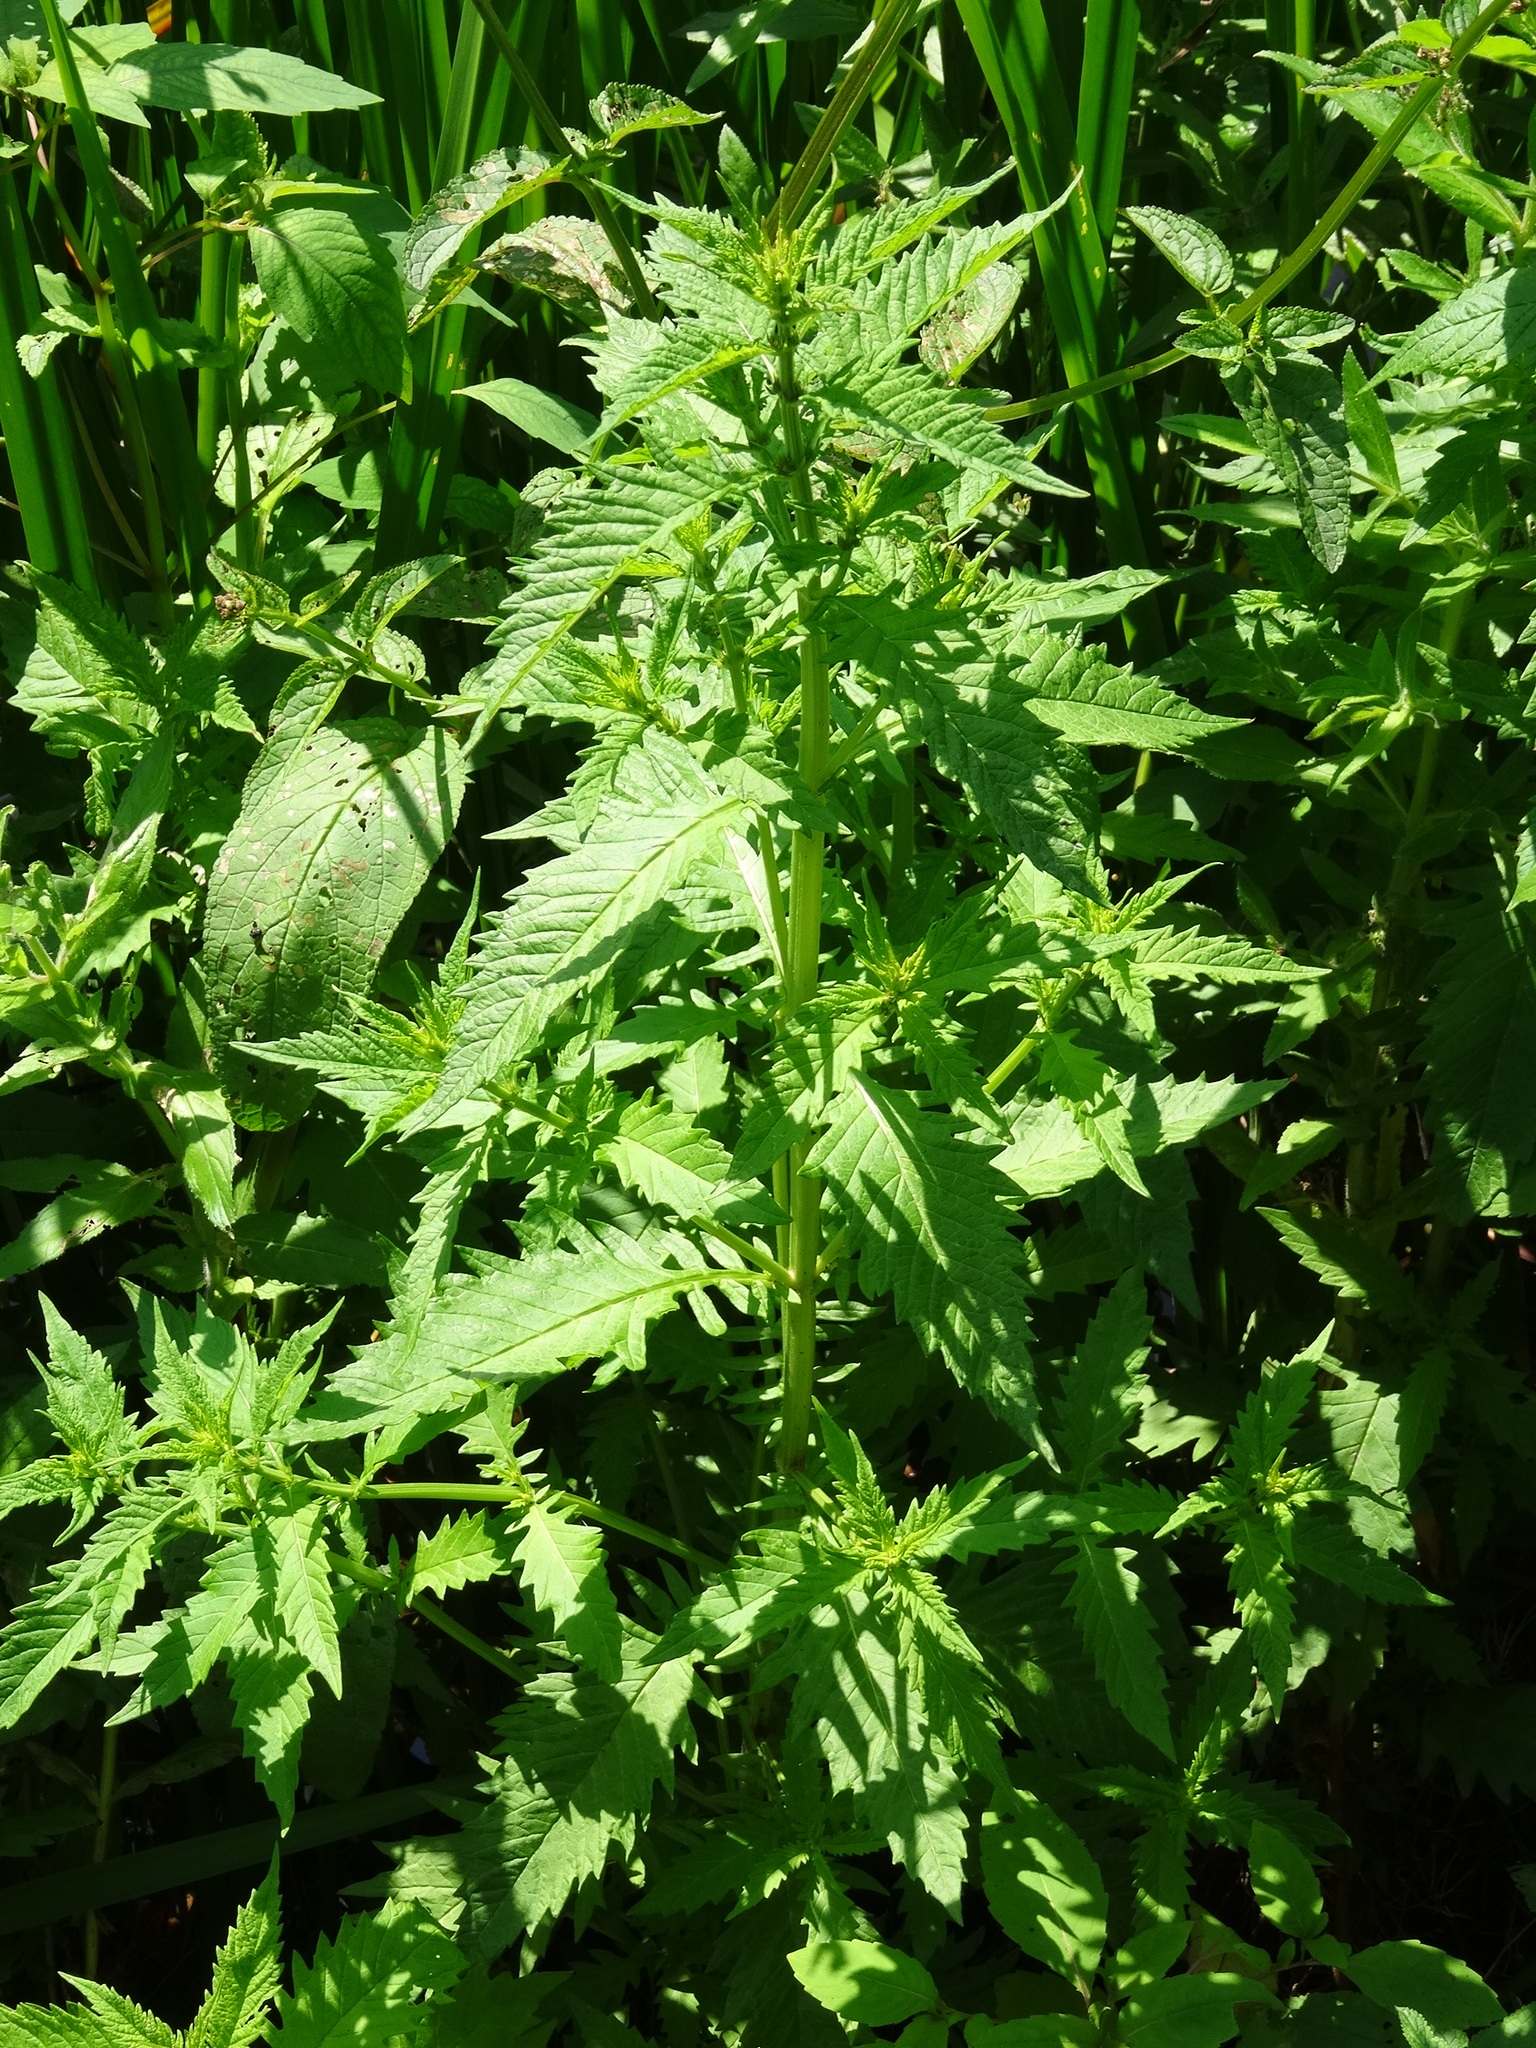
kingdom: Plantae
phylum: Tracheophyta
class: Magnoliopsida
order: Lamiales
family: Lamiaceae
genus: Lycopus
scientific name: Lycopus europaeus
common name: European bugleweed
